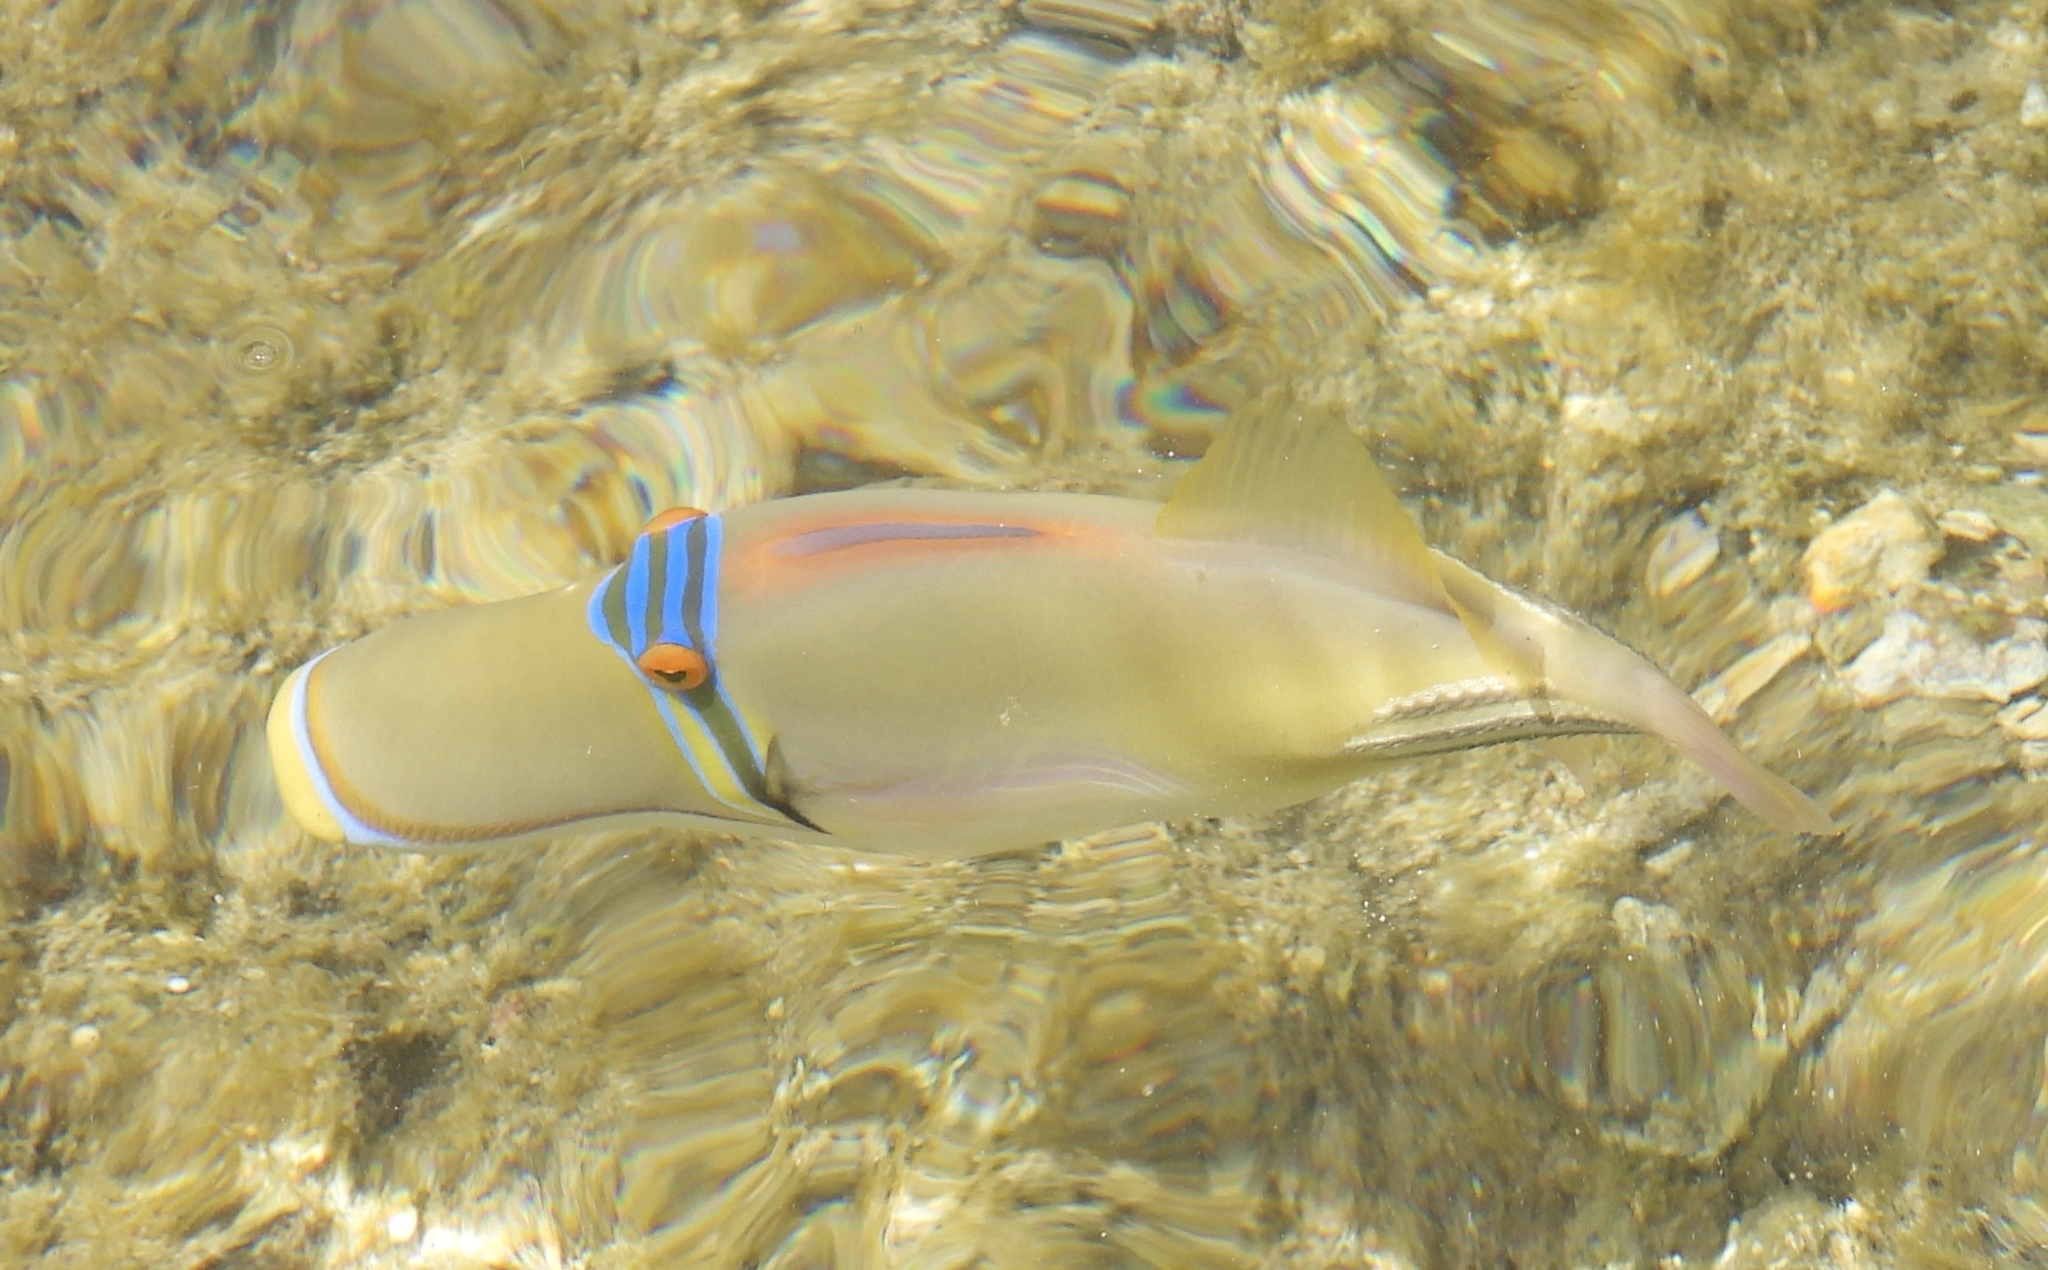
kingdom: Animalia
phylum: Chordata
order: Tetraodontiformes
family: Balistidae
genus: Rhinecanthus
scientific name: Rhinecanthus assasi
